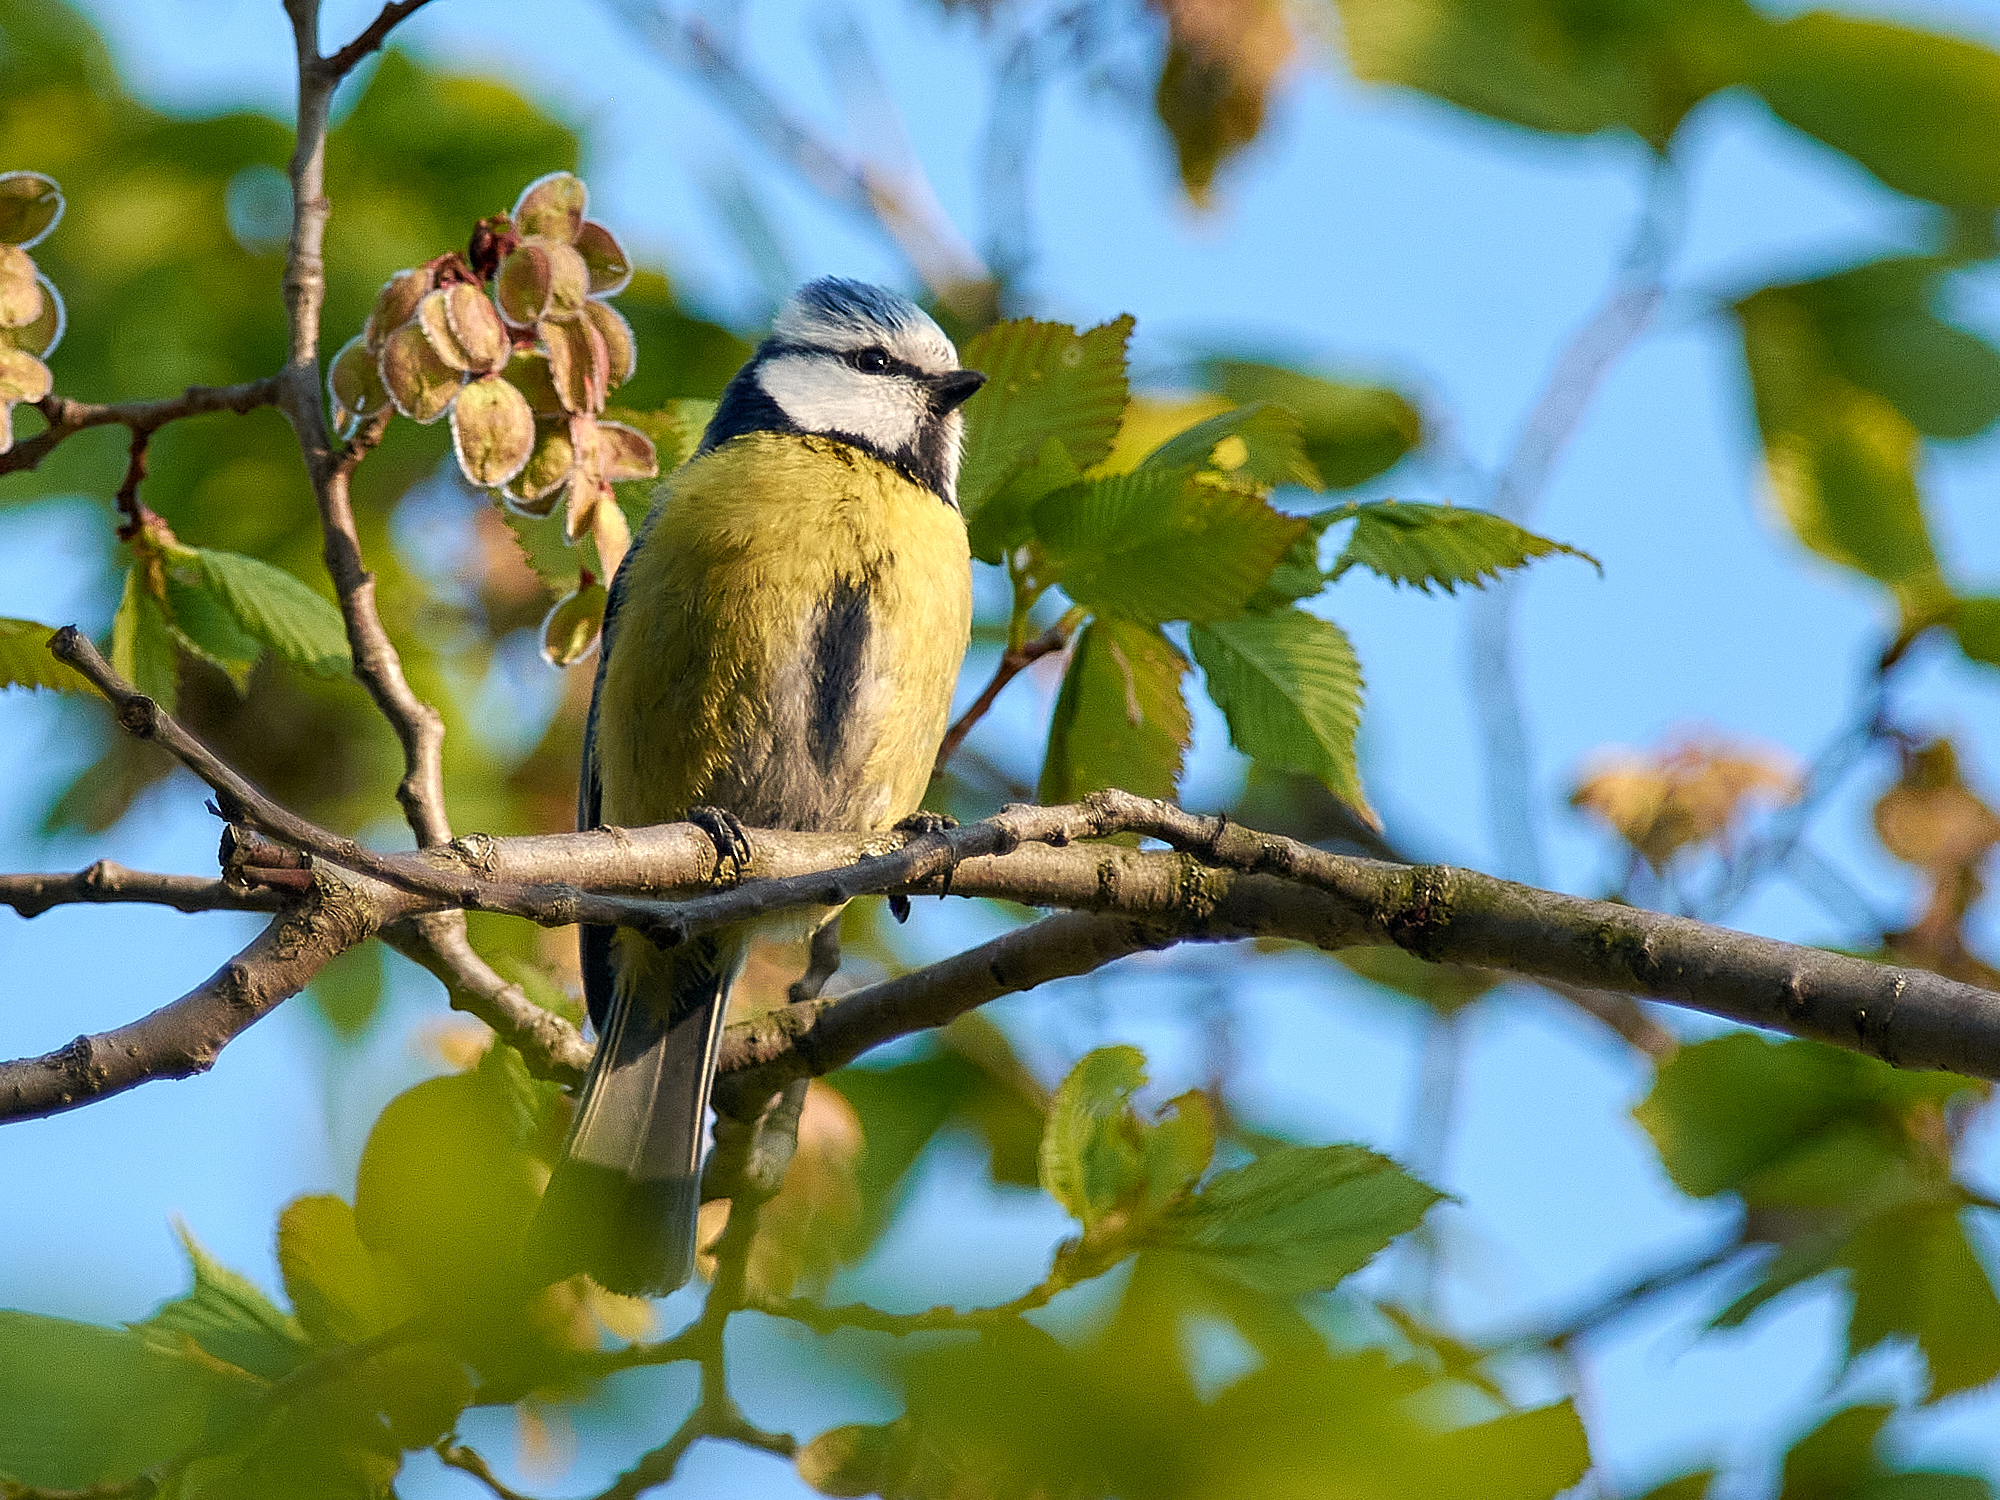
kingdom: Animalia
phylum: Chordata
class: Aves
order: Passeriformes
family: Paridae
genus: Cyanistes
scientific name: Cyanistes caeruleus
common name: Eurasian blue tit
